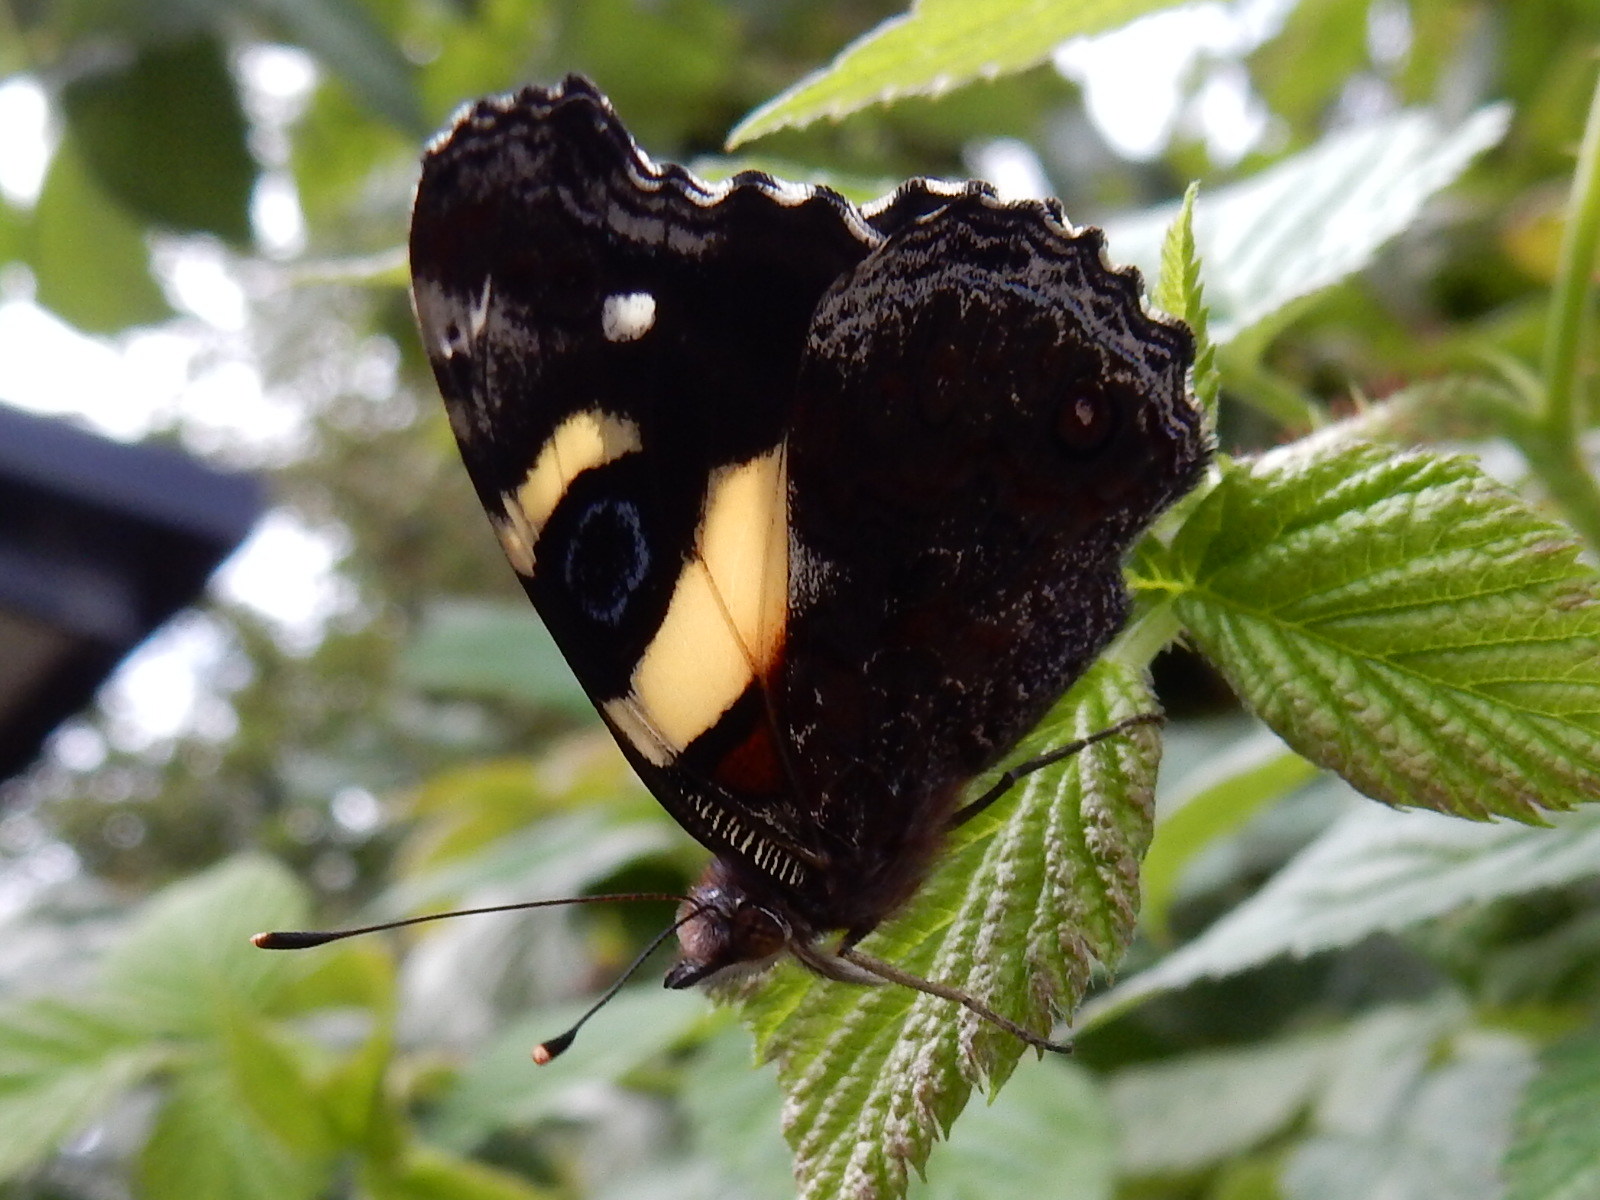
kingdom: Animalia
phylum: Arthropoda
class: Insecta
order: Lepidoptera
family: Nymphalidae
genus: Vanessa
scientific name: Vanessa itea
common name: Yellow admiral
